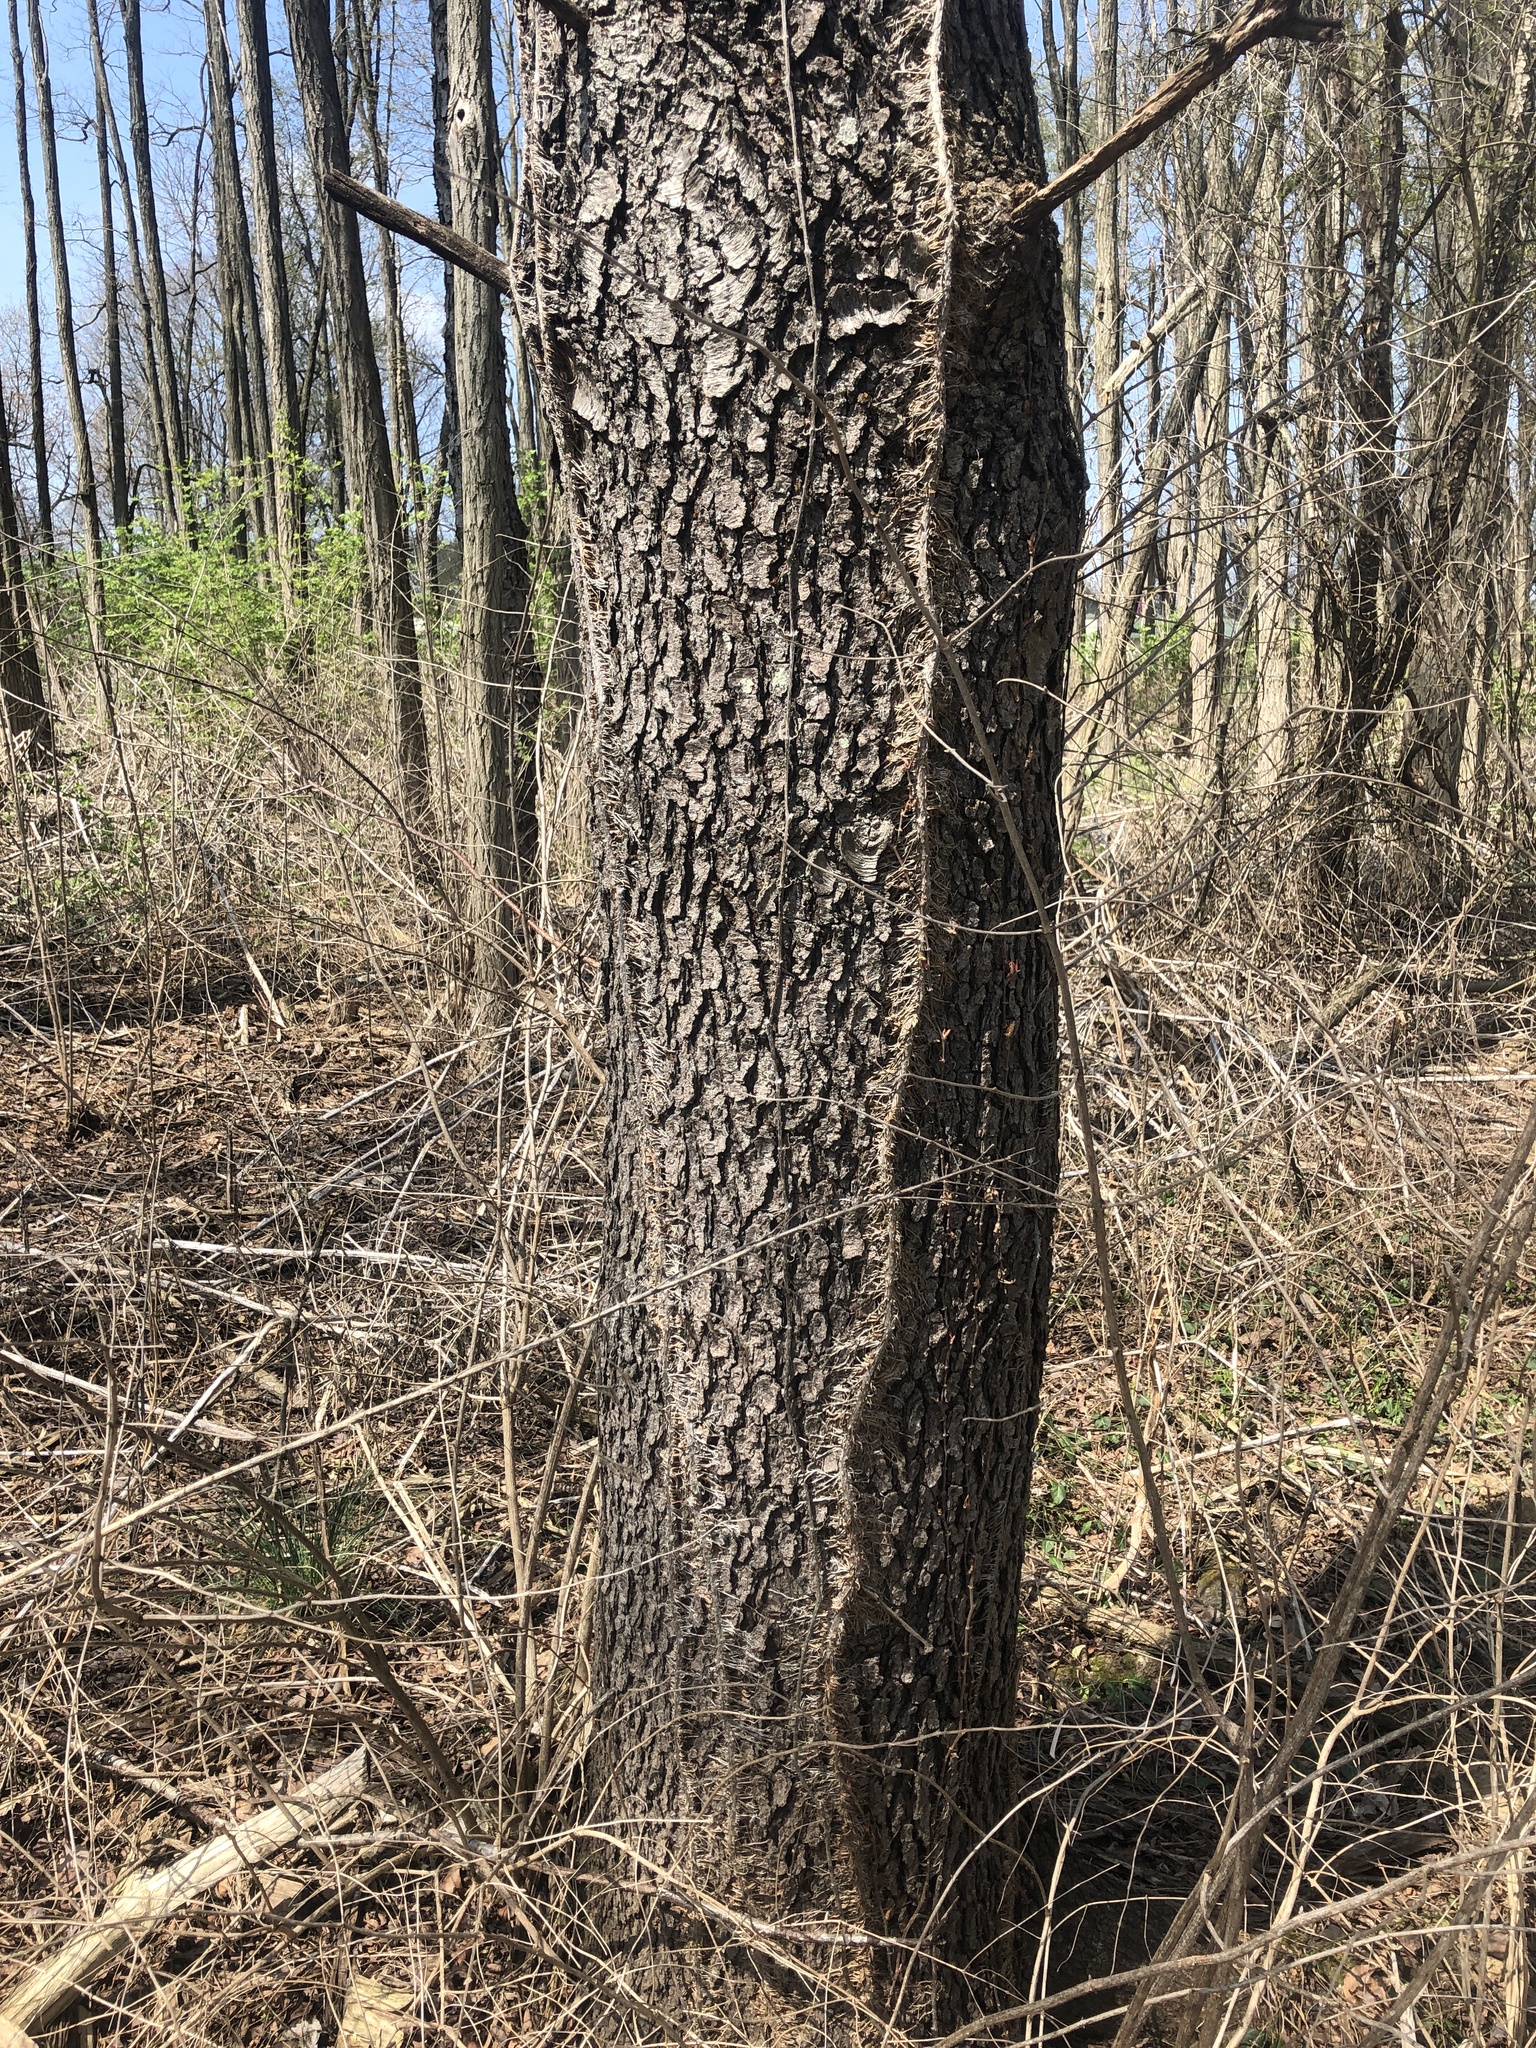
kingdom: Plantae
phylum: Tracheophyta
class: Magnoliopsida
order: Rosales
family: Rosaceae
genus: Prunus
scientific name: Prunus serotina
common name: Black cherry
